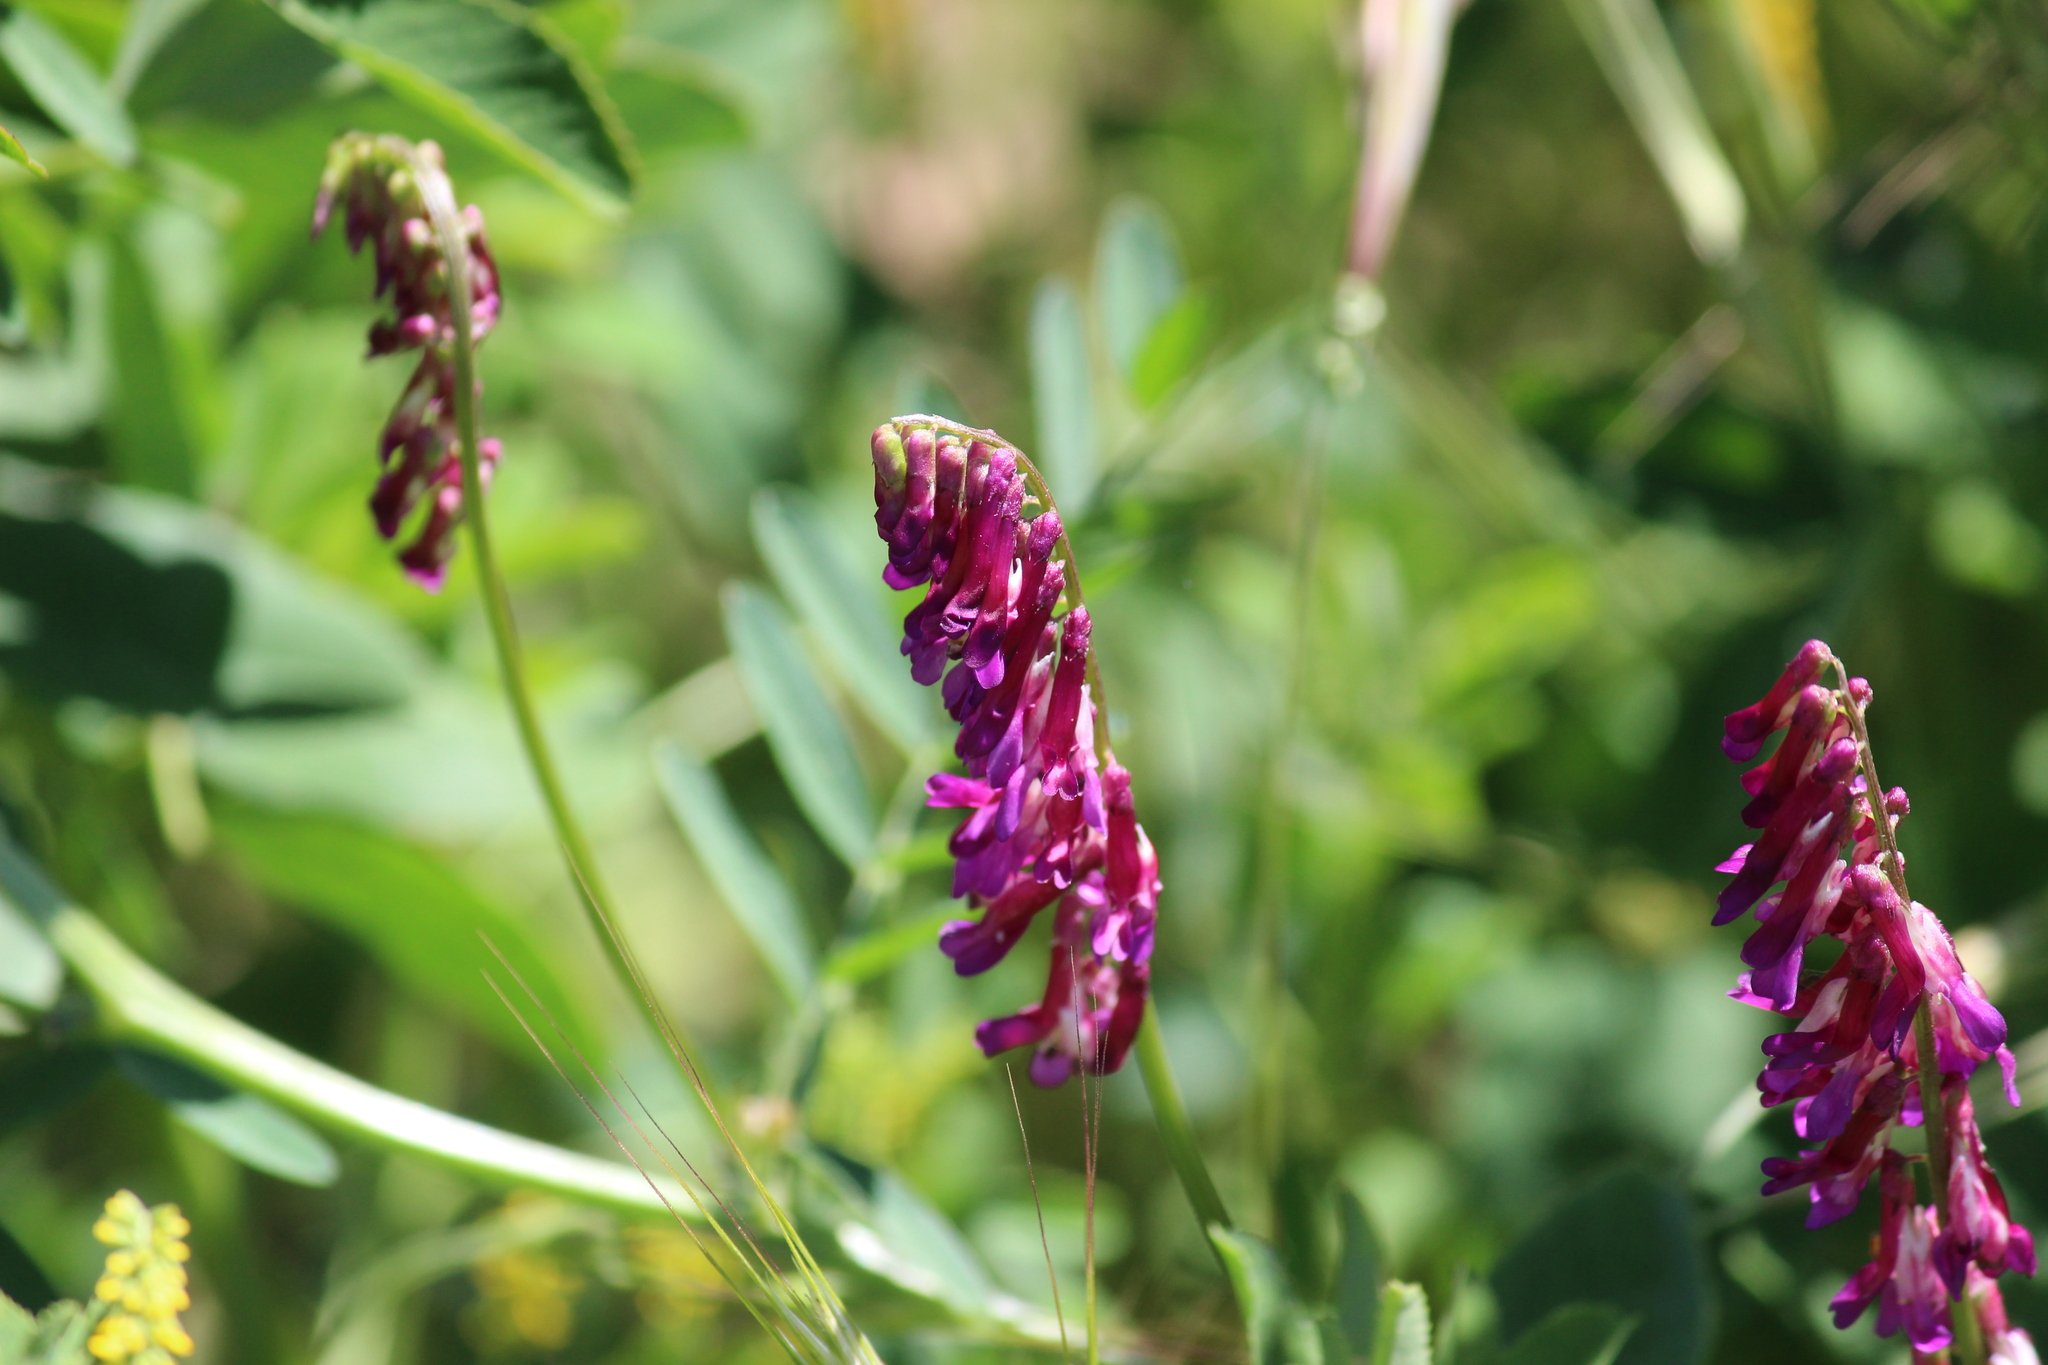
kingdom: Plantae
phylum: Tracheophyta
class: Magnoliopsida
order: Fabales
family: Fabaceae
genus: Vicia
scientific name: Vicia villosa
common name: Fodder vetch
